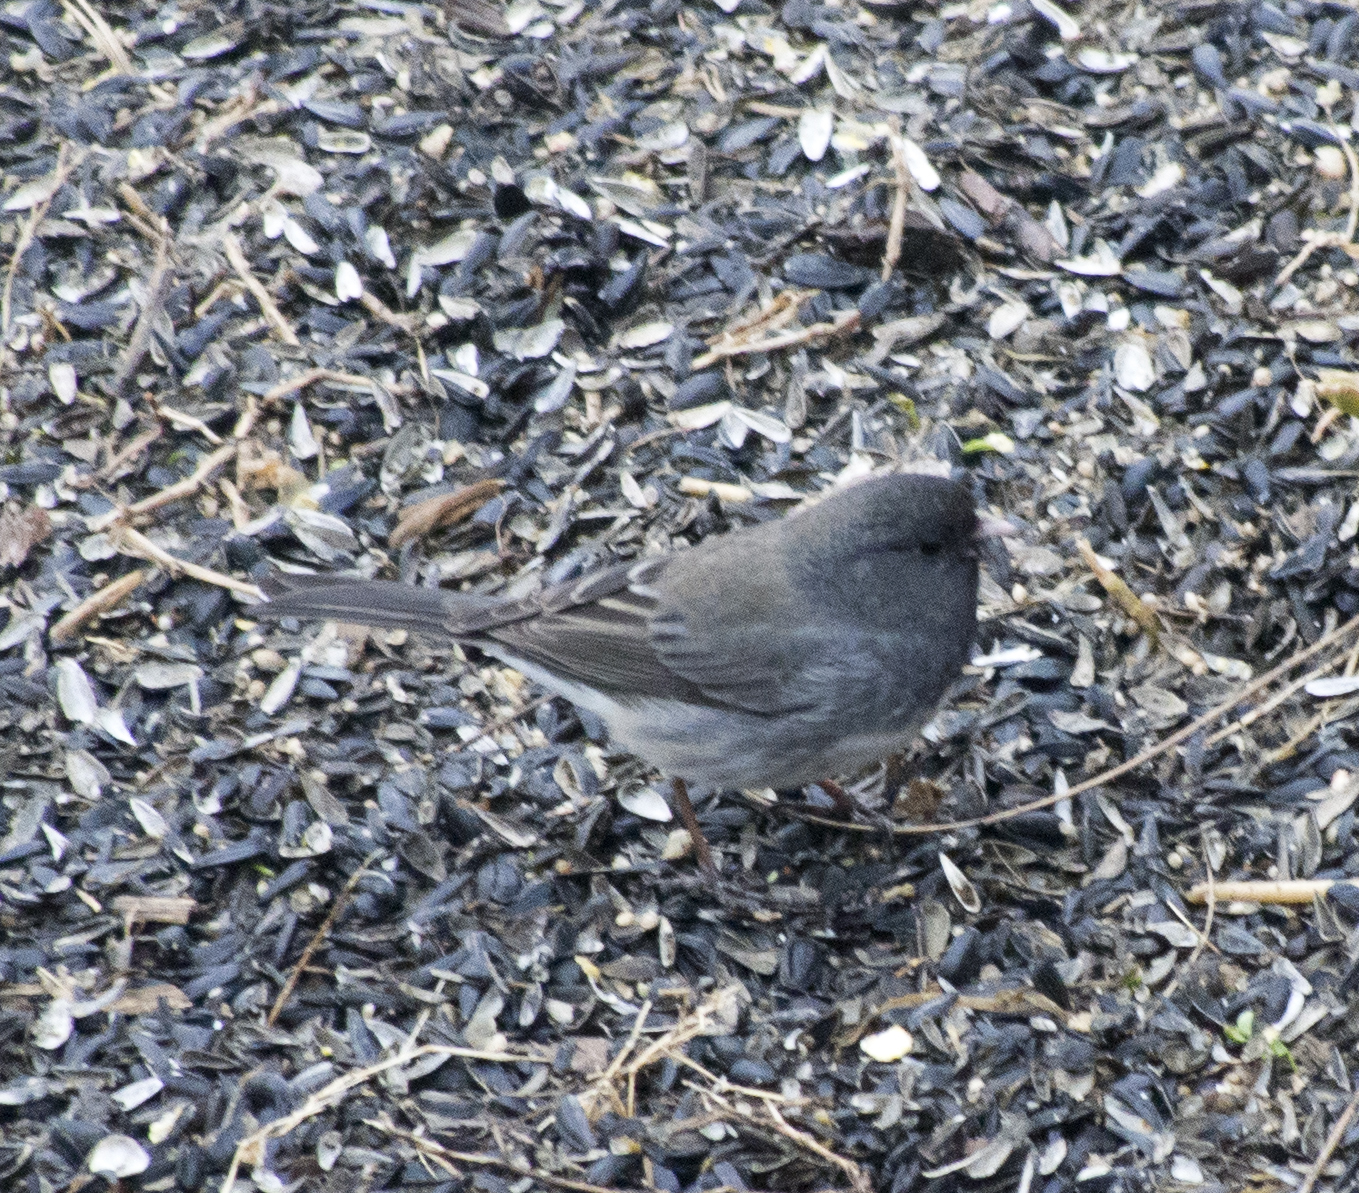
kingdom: Animalia
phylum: Chordata
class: Aves
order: Passeriformes
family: Passerellidae
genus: Junco
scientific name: Junco hyemalis
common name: Dark-eyed junco
